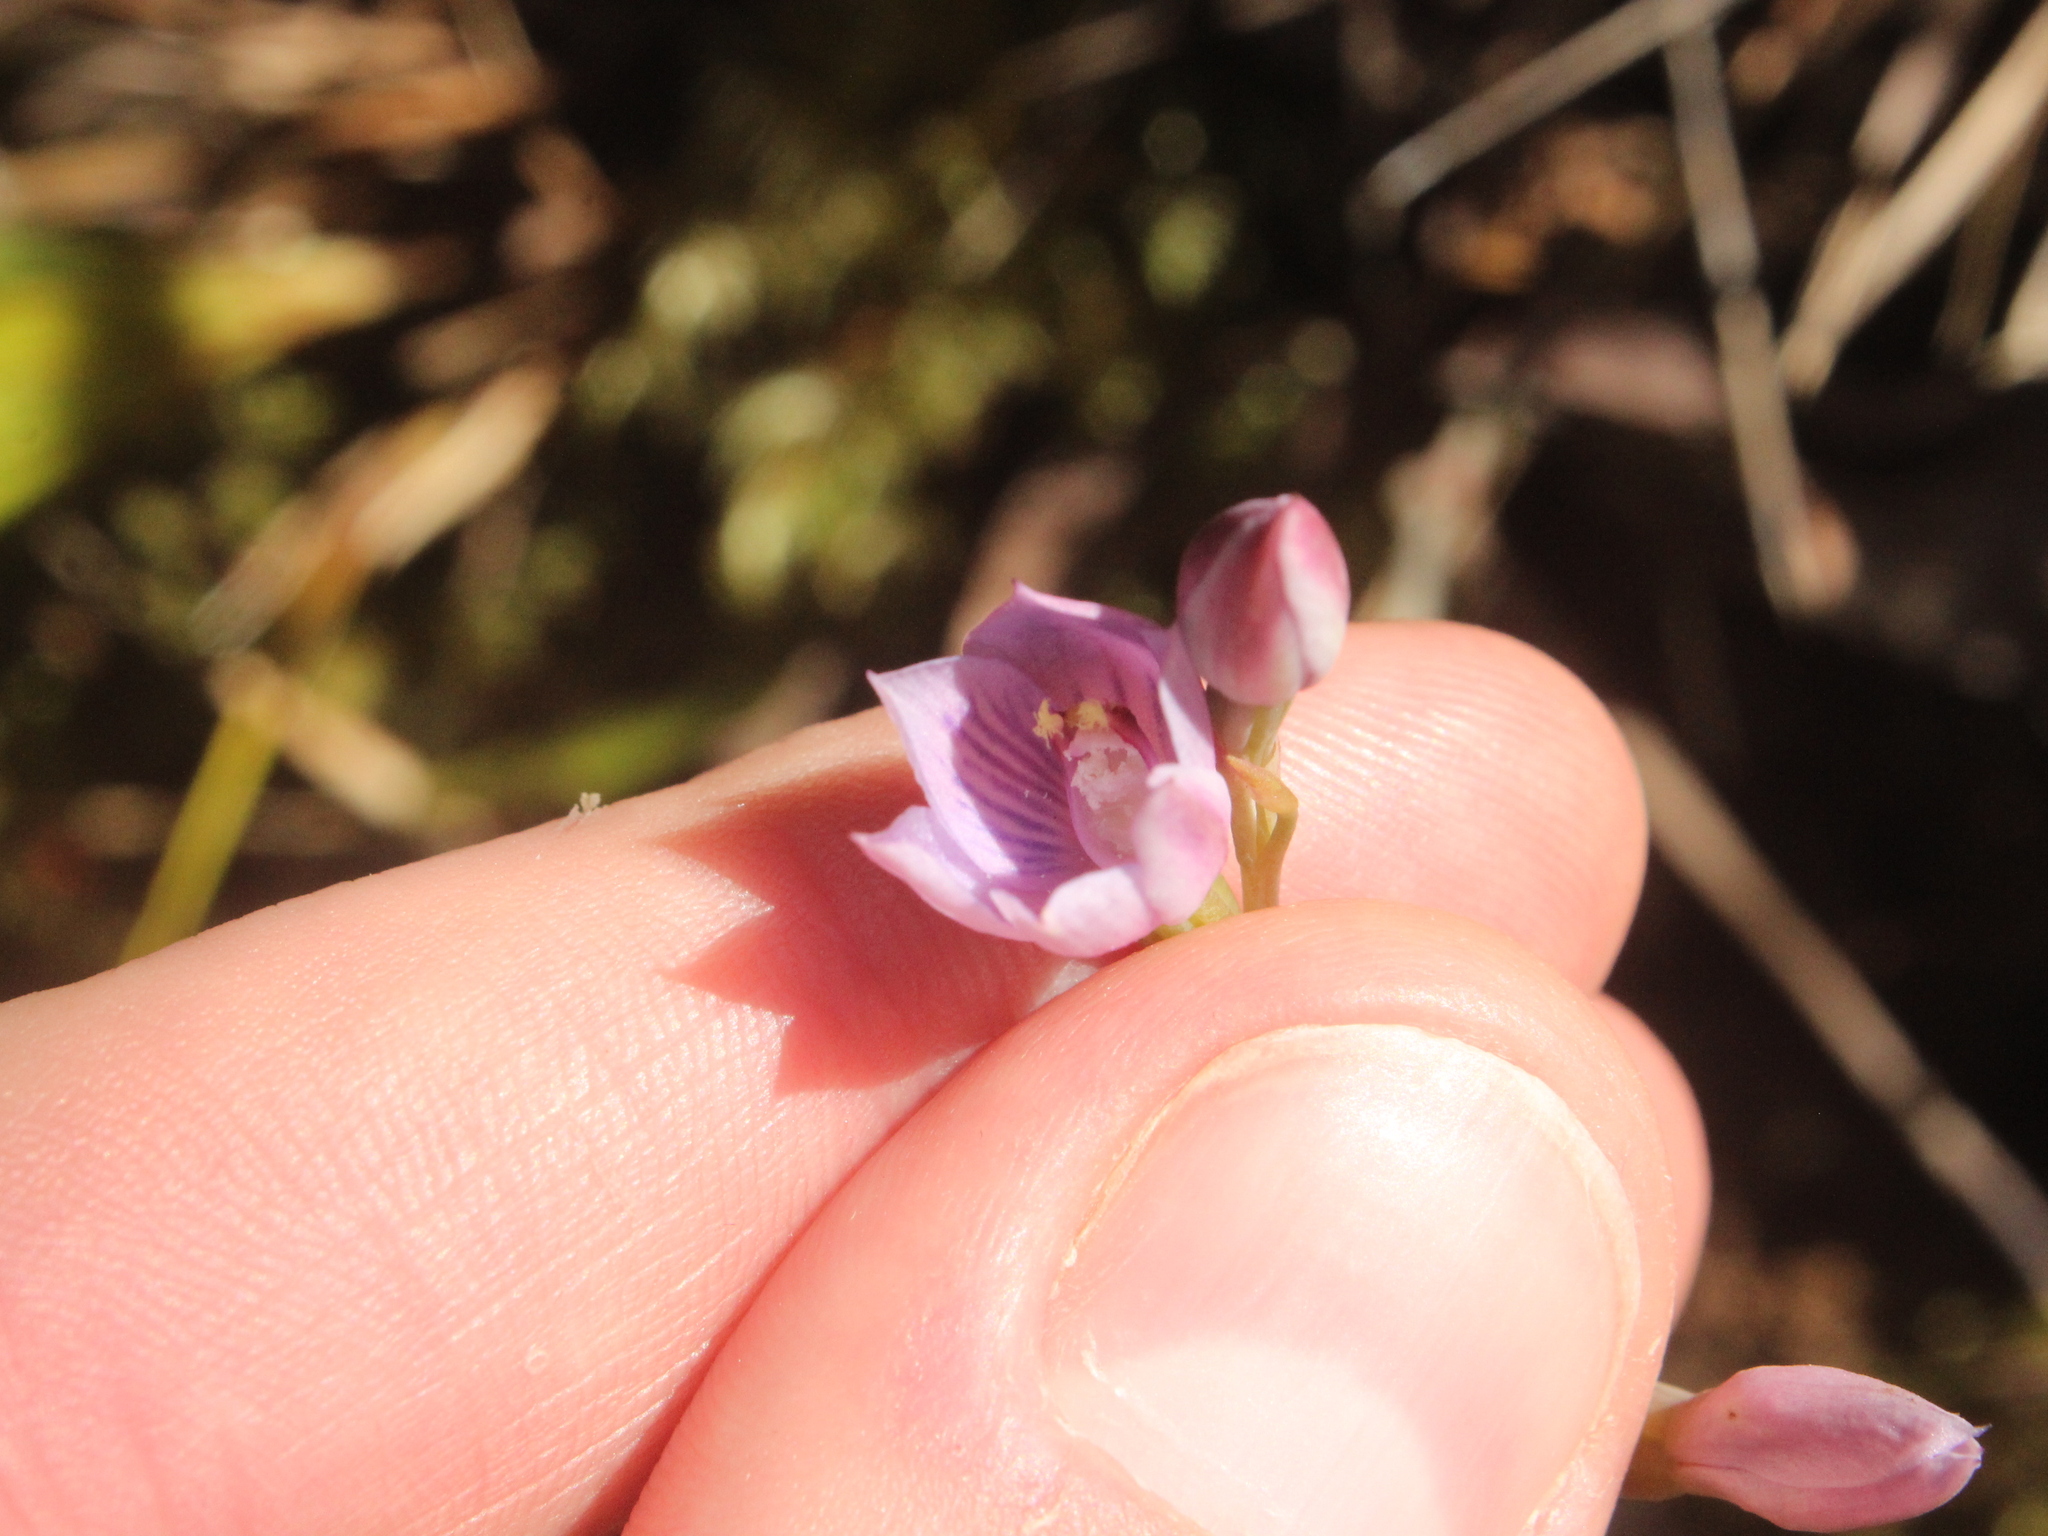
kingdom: Plantae
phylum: Tracheophyta
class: Liliopsida
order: Asparagales
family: Orchidaceae
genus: Thelymitra
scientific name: Thelymitra pulchella
